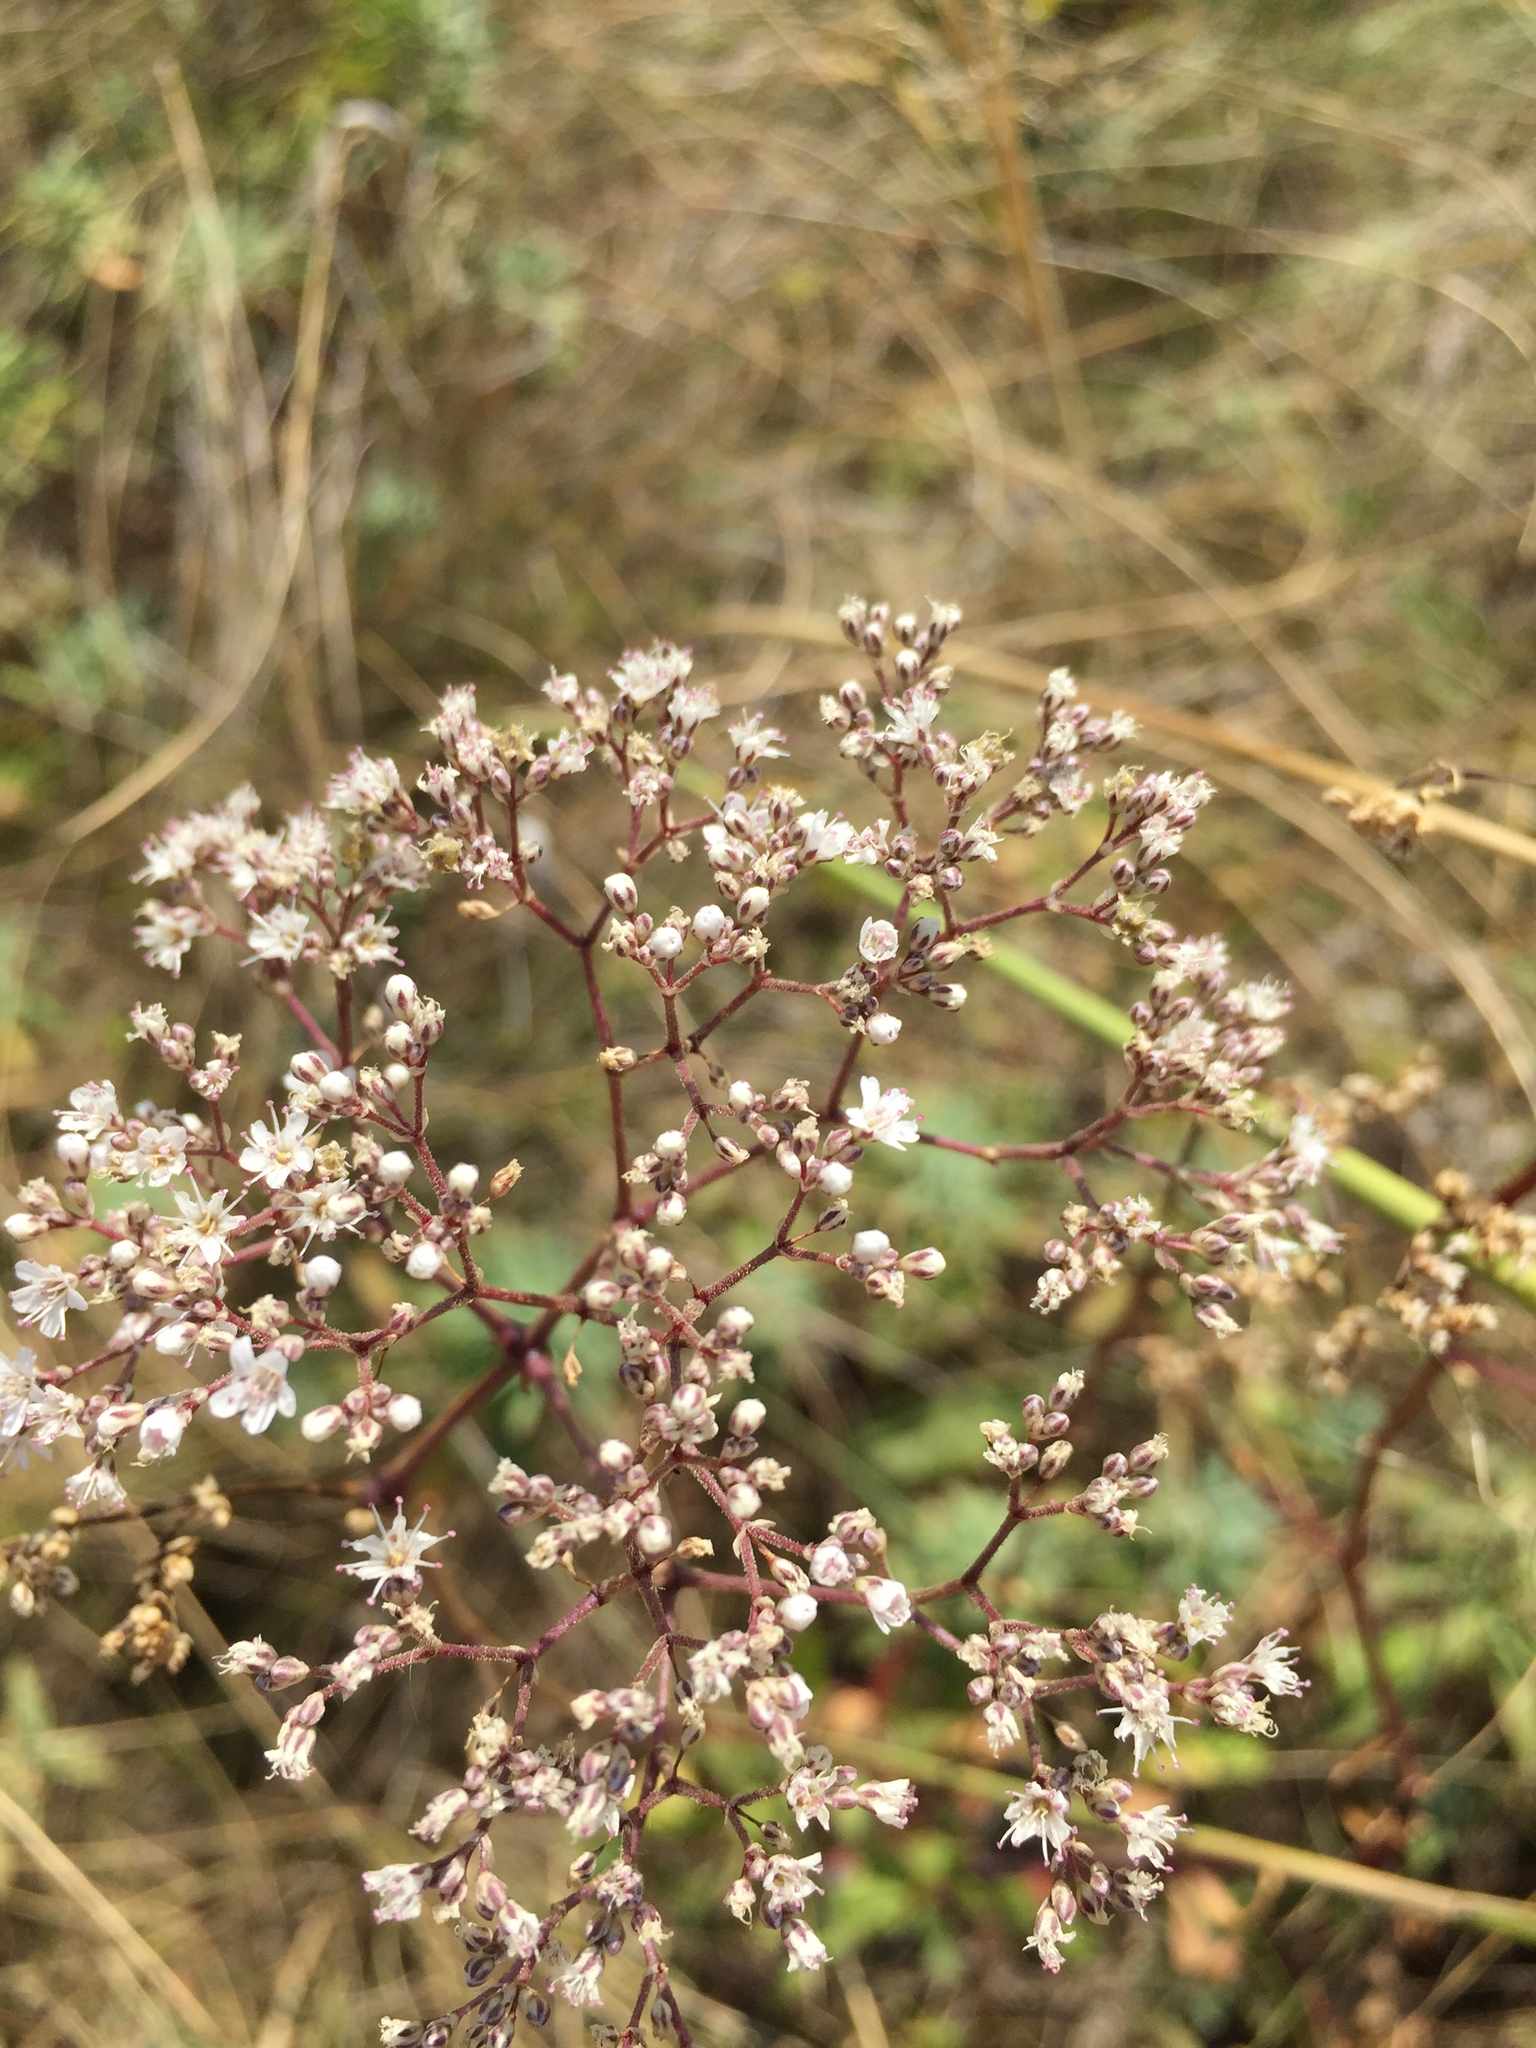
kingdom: Plantae
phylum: Tracheophyta
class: Magnoliopsida
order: Caryophyllales
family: Caryophyllaceae
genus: Gypsophila
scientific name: Gypsophila altissima
